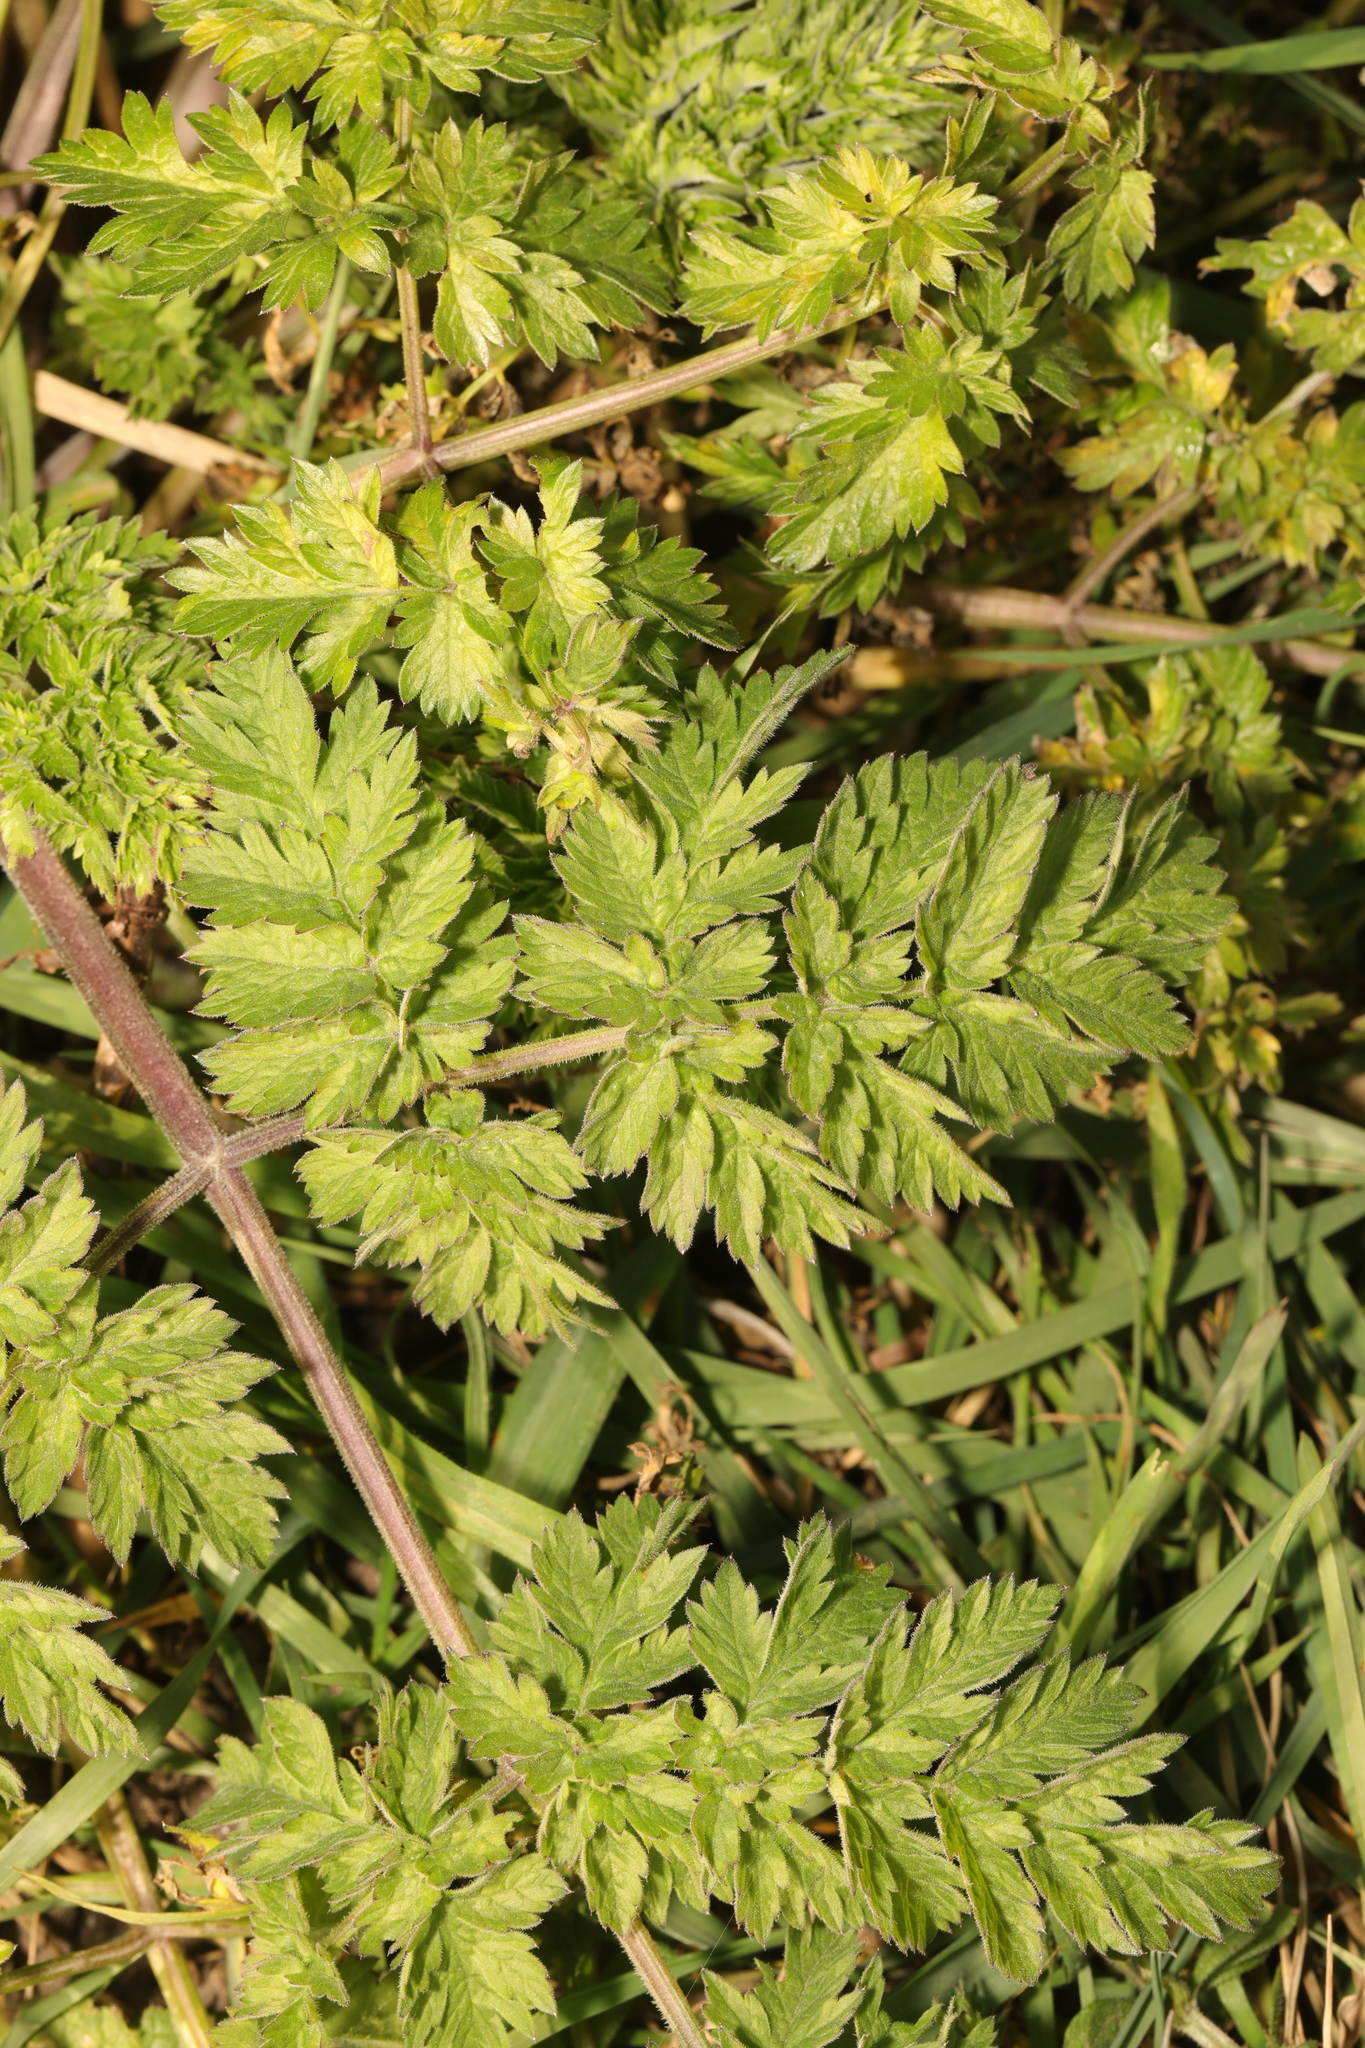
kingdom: Plantae
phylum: Tracheophyta
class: Magnoliopsida
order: Apiales
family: Apiaceae
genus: Anthriscus
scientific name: Anthriscus sylvestris
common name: Cow parsley
